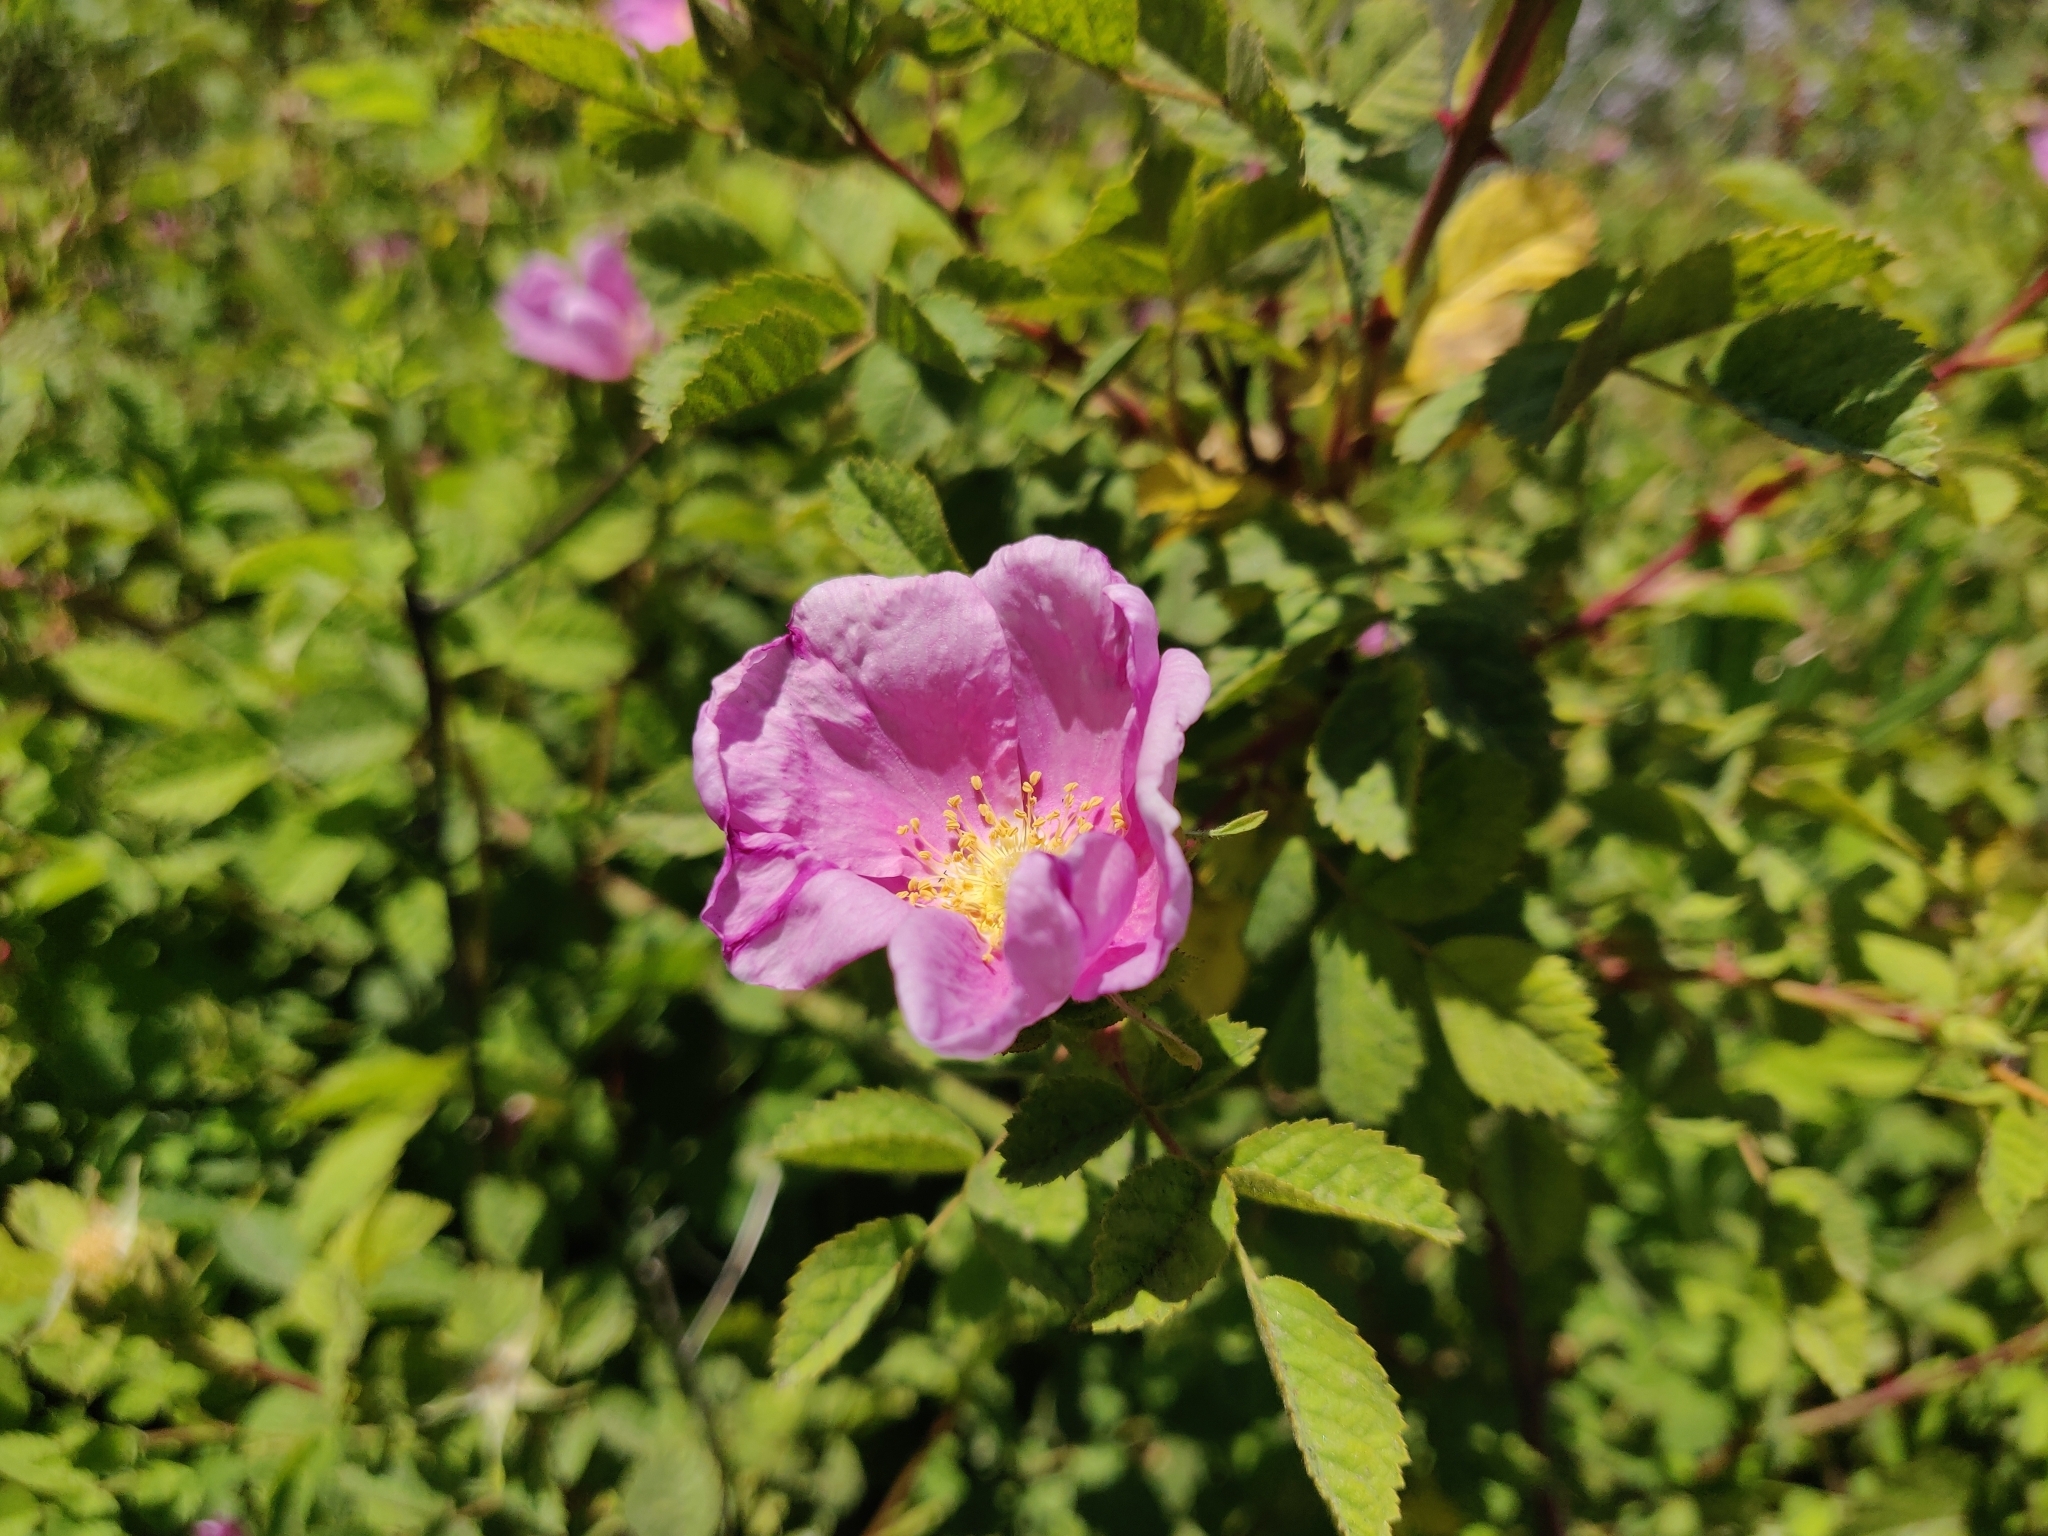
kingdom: Plantae
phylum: Tracheophyta
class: Magnoliopsida
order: Rosales
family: Rosaceae
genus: Rosa
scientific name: Rosa californica
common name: California rose
